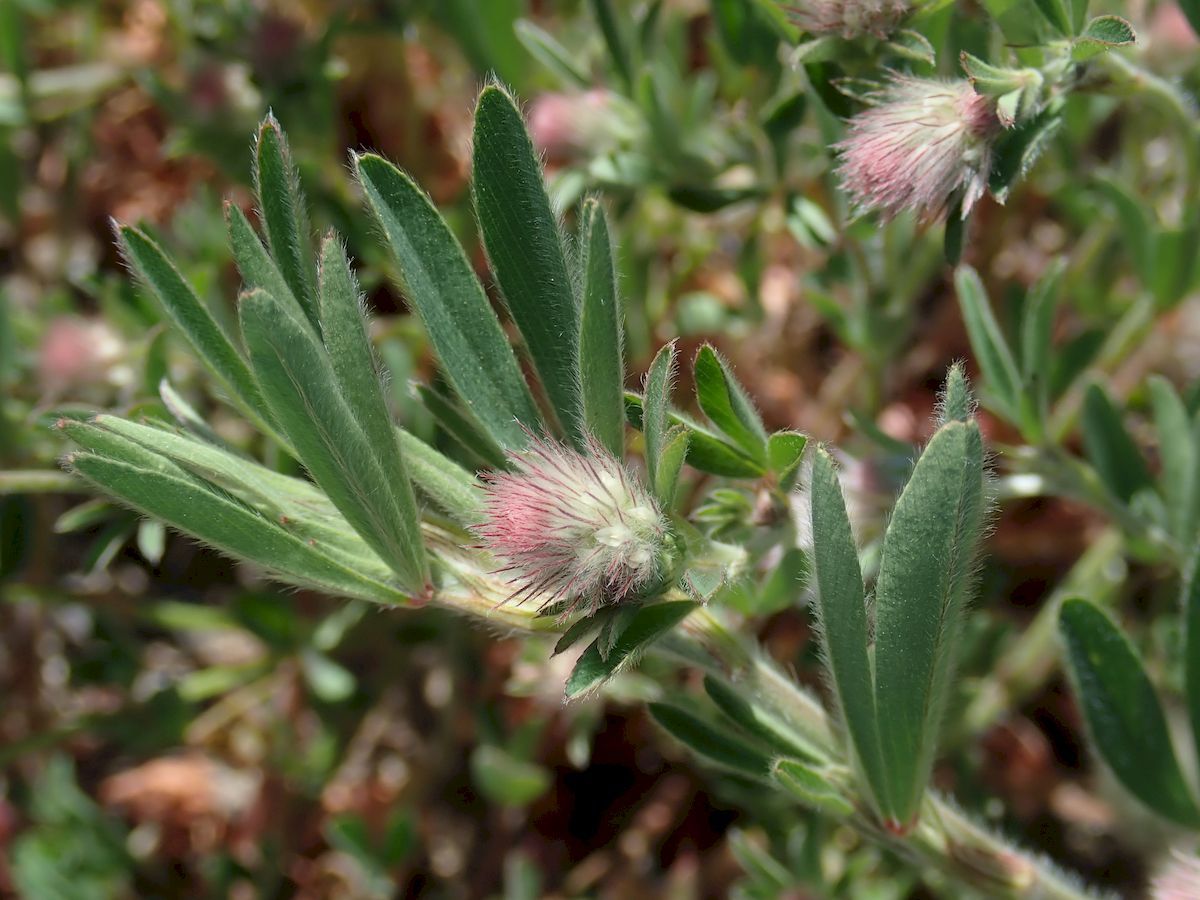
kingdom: Plantae
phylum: Tracheophyta
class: Magnoliopsida
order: Fabales
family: Fabaceae
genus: Trifolium
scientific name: Trifolium arvense
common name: Hare's-foot clover
